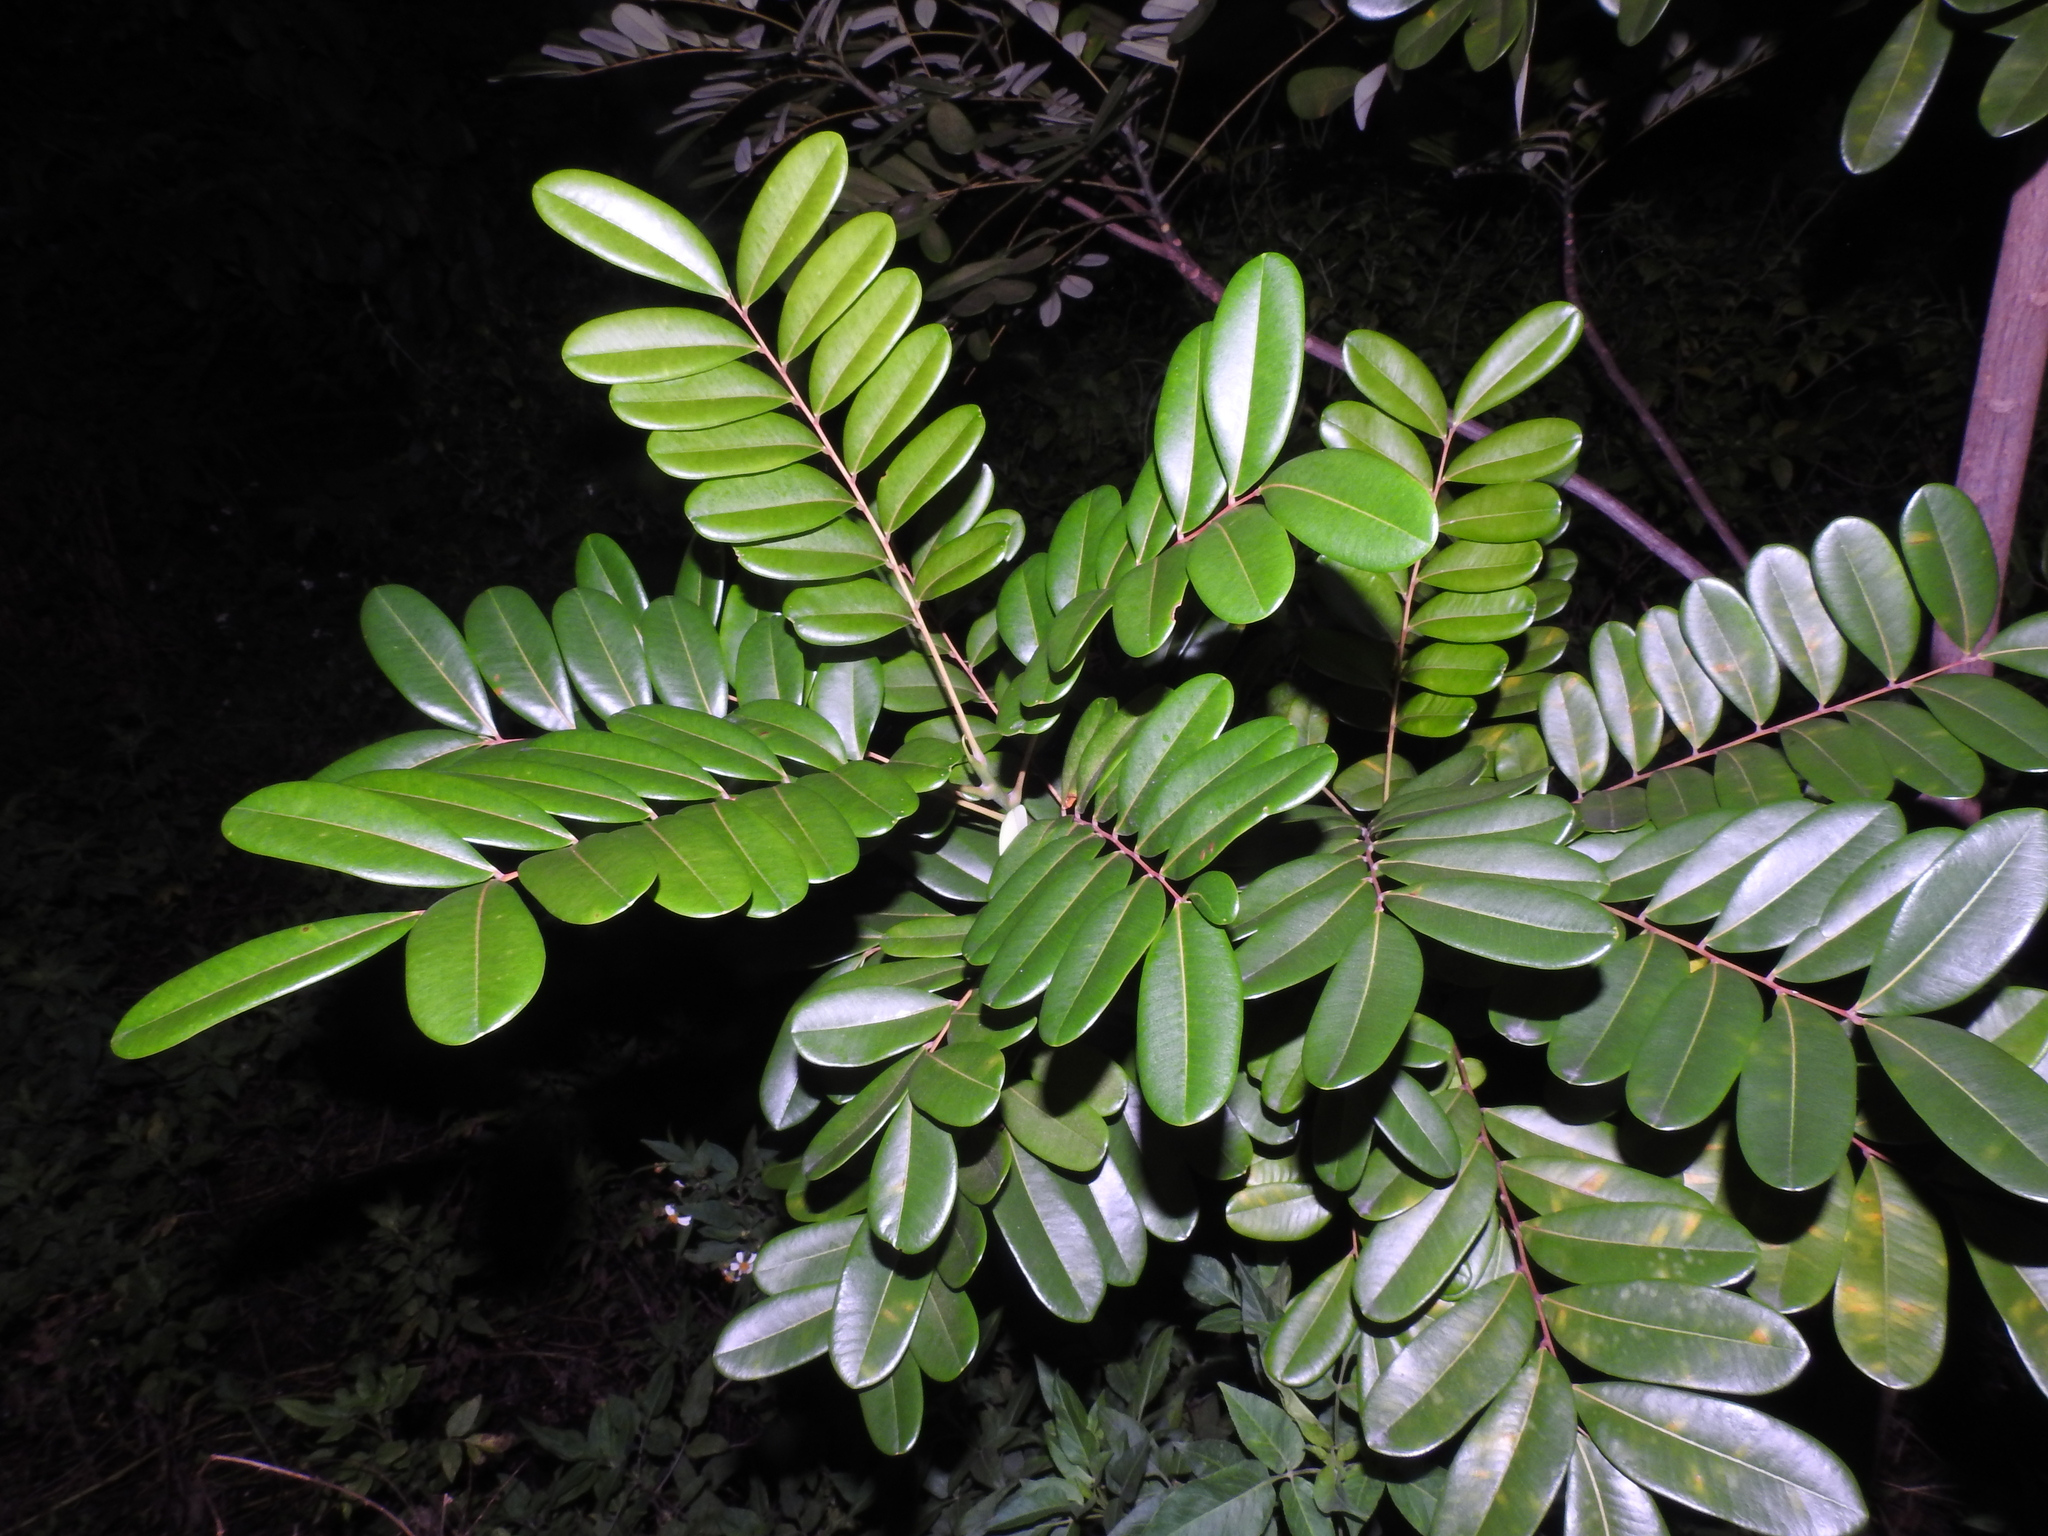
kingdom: Plantae
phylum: Tracheophyta
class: Magnoliopsida
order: Sapindales
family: Simaroubaceae
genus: Simarouba
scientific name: Simarouba glauca
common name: Dysentery-bark
